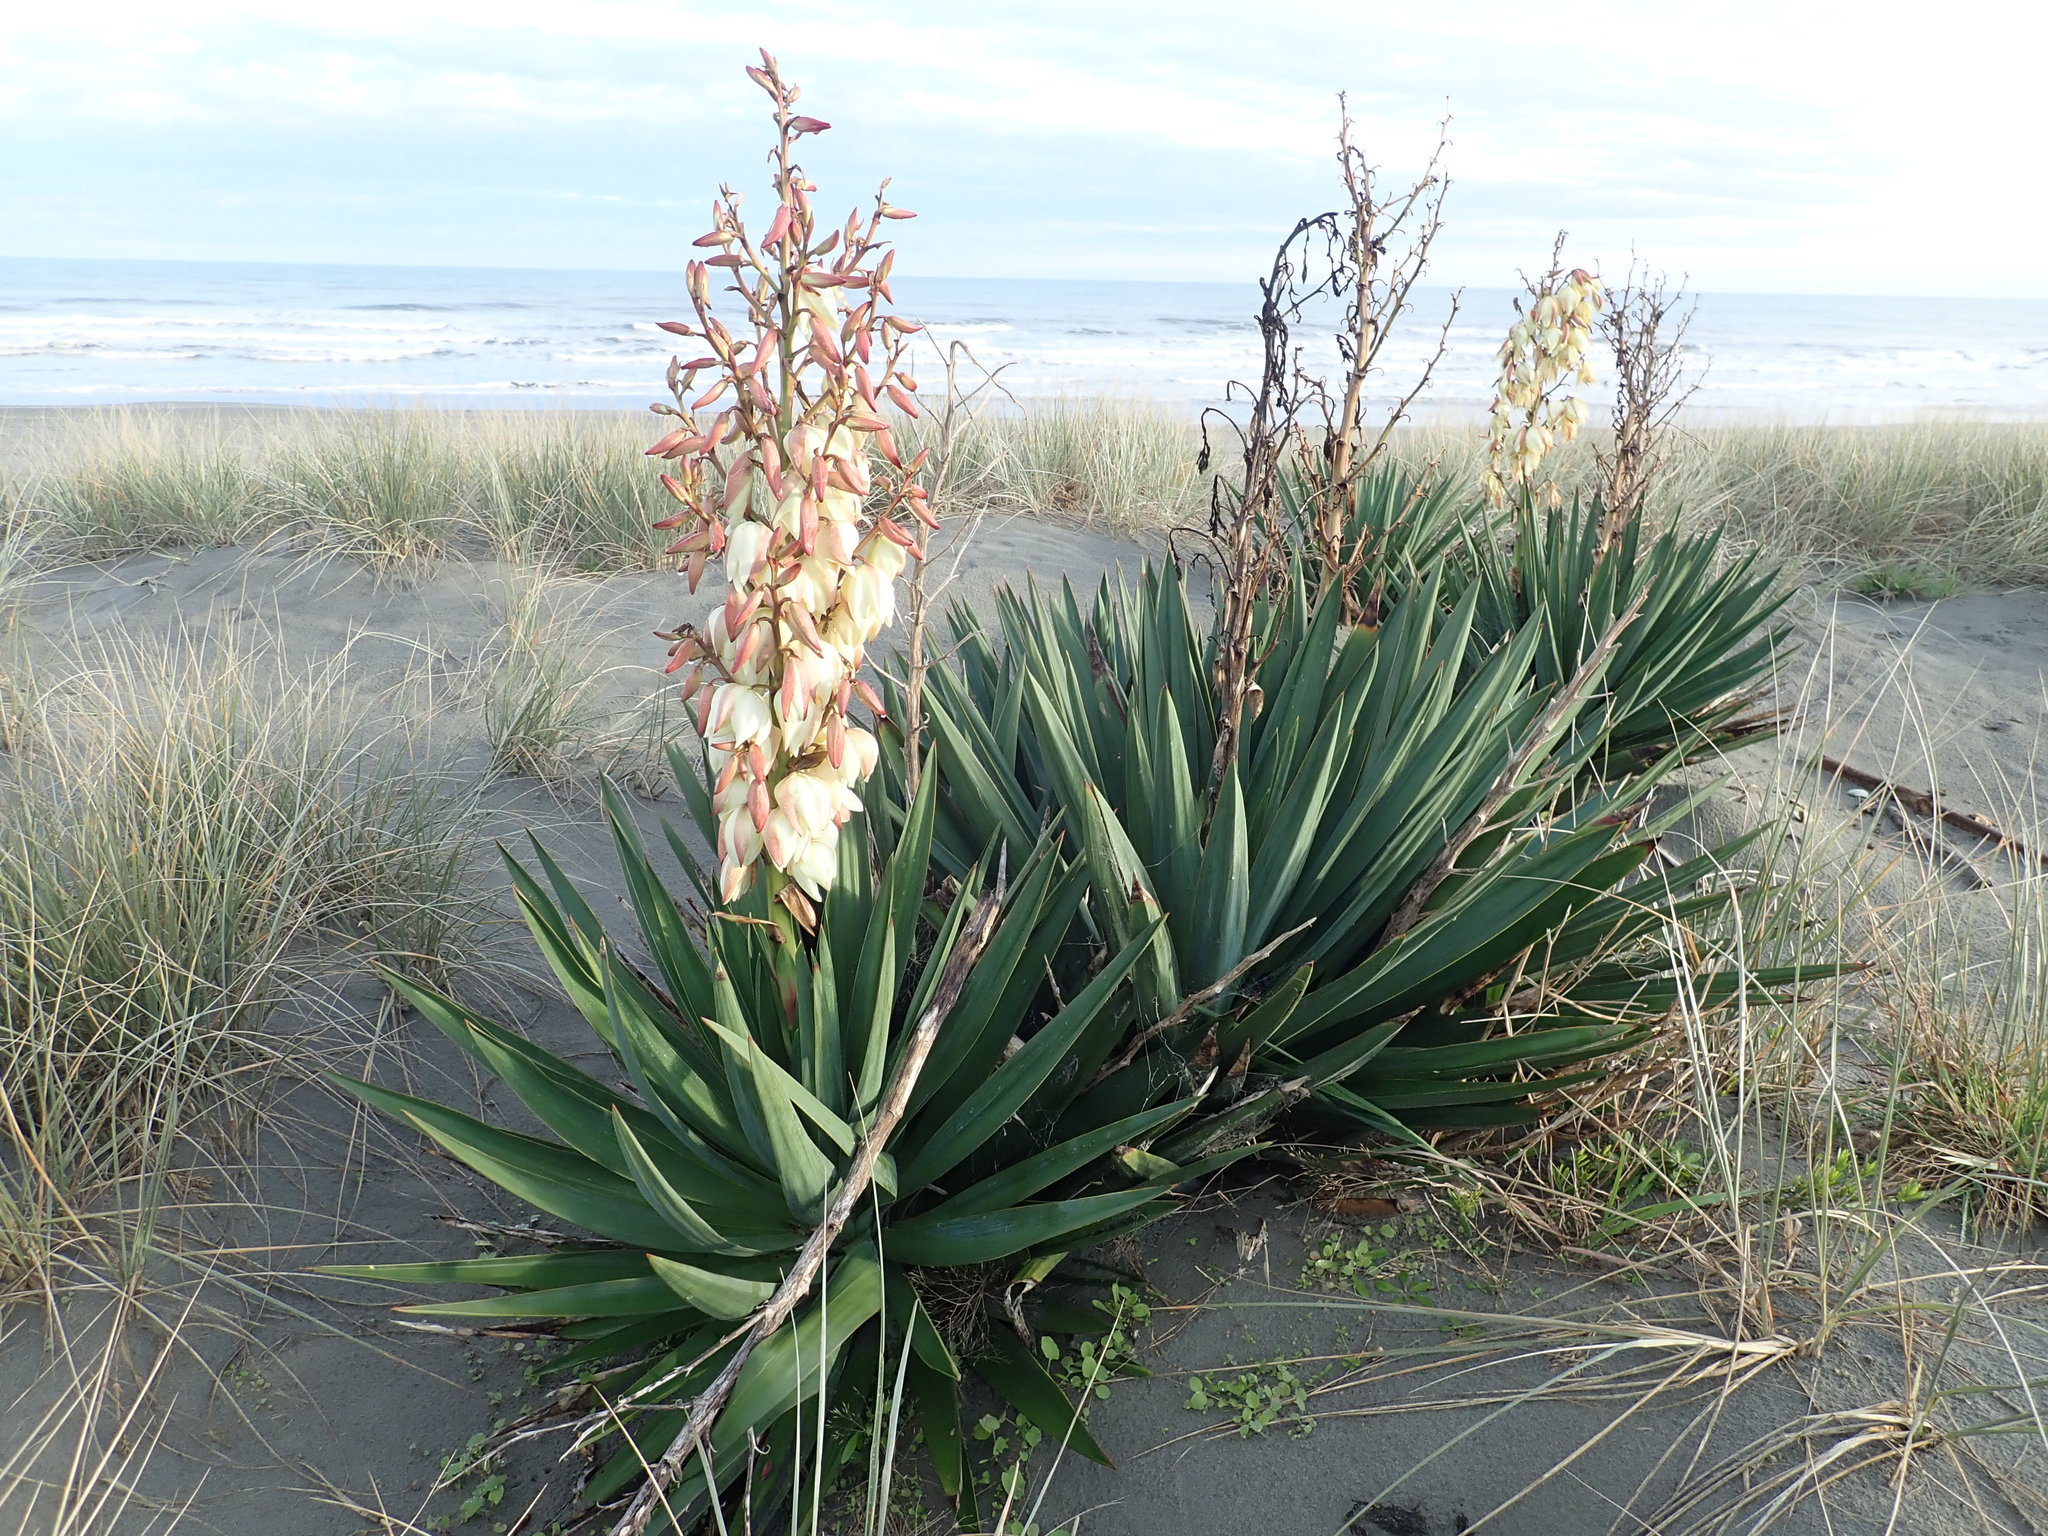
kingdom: Plantae
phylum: Tracheophyta
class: Liliopsida
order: Asparagales
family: Asparagaceae
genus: Yucca
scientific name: Yucca gloriosa
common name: Spanish-dagger
